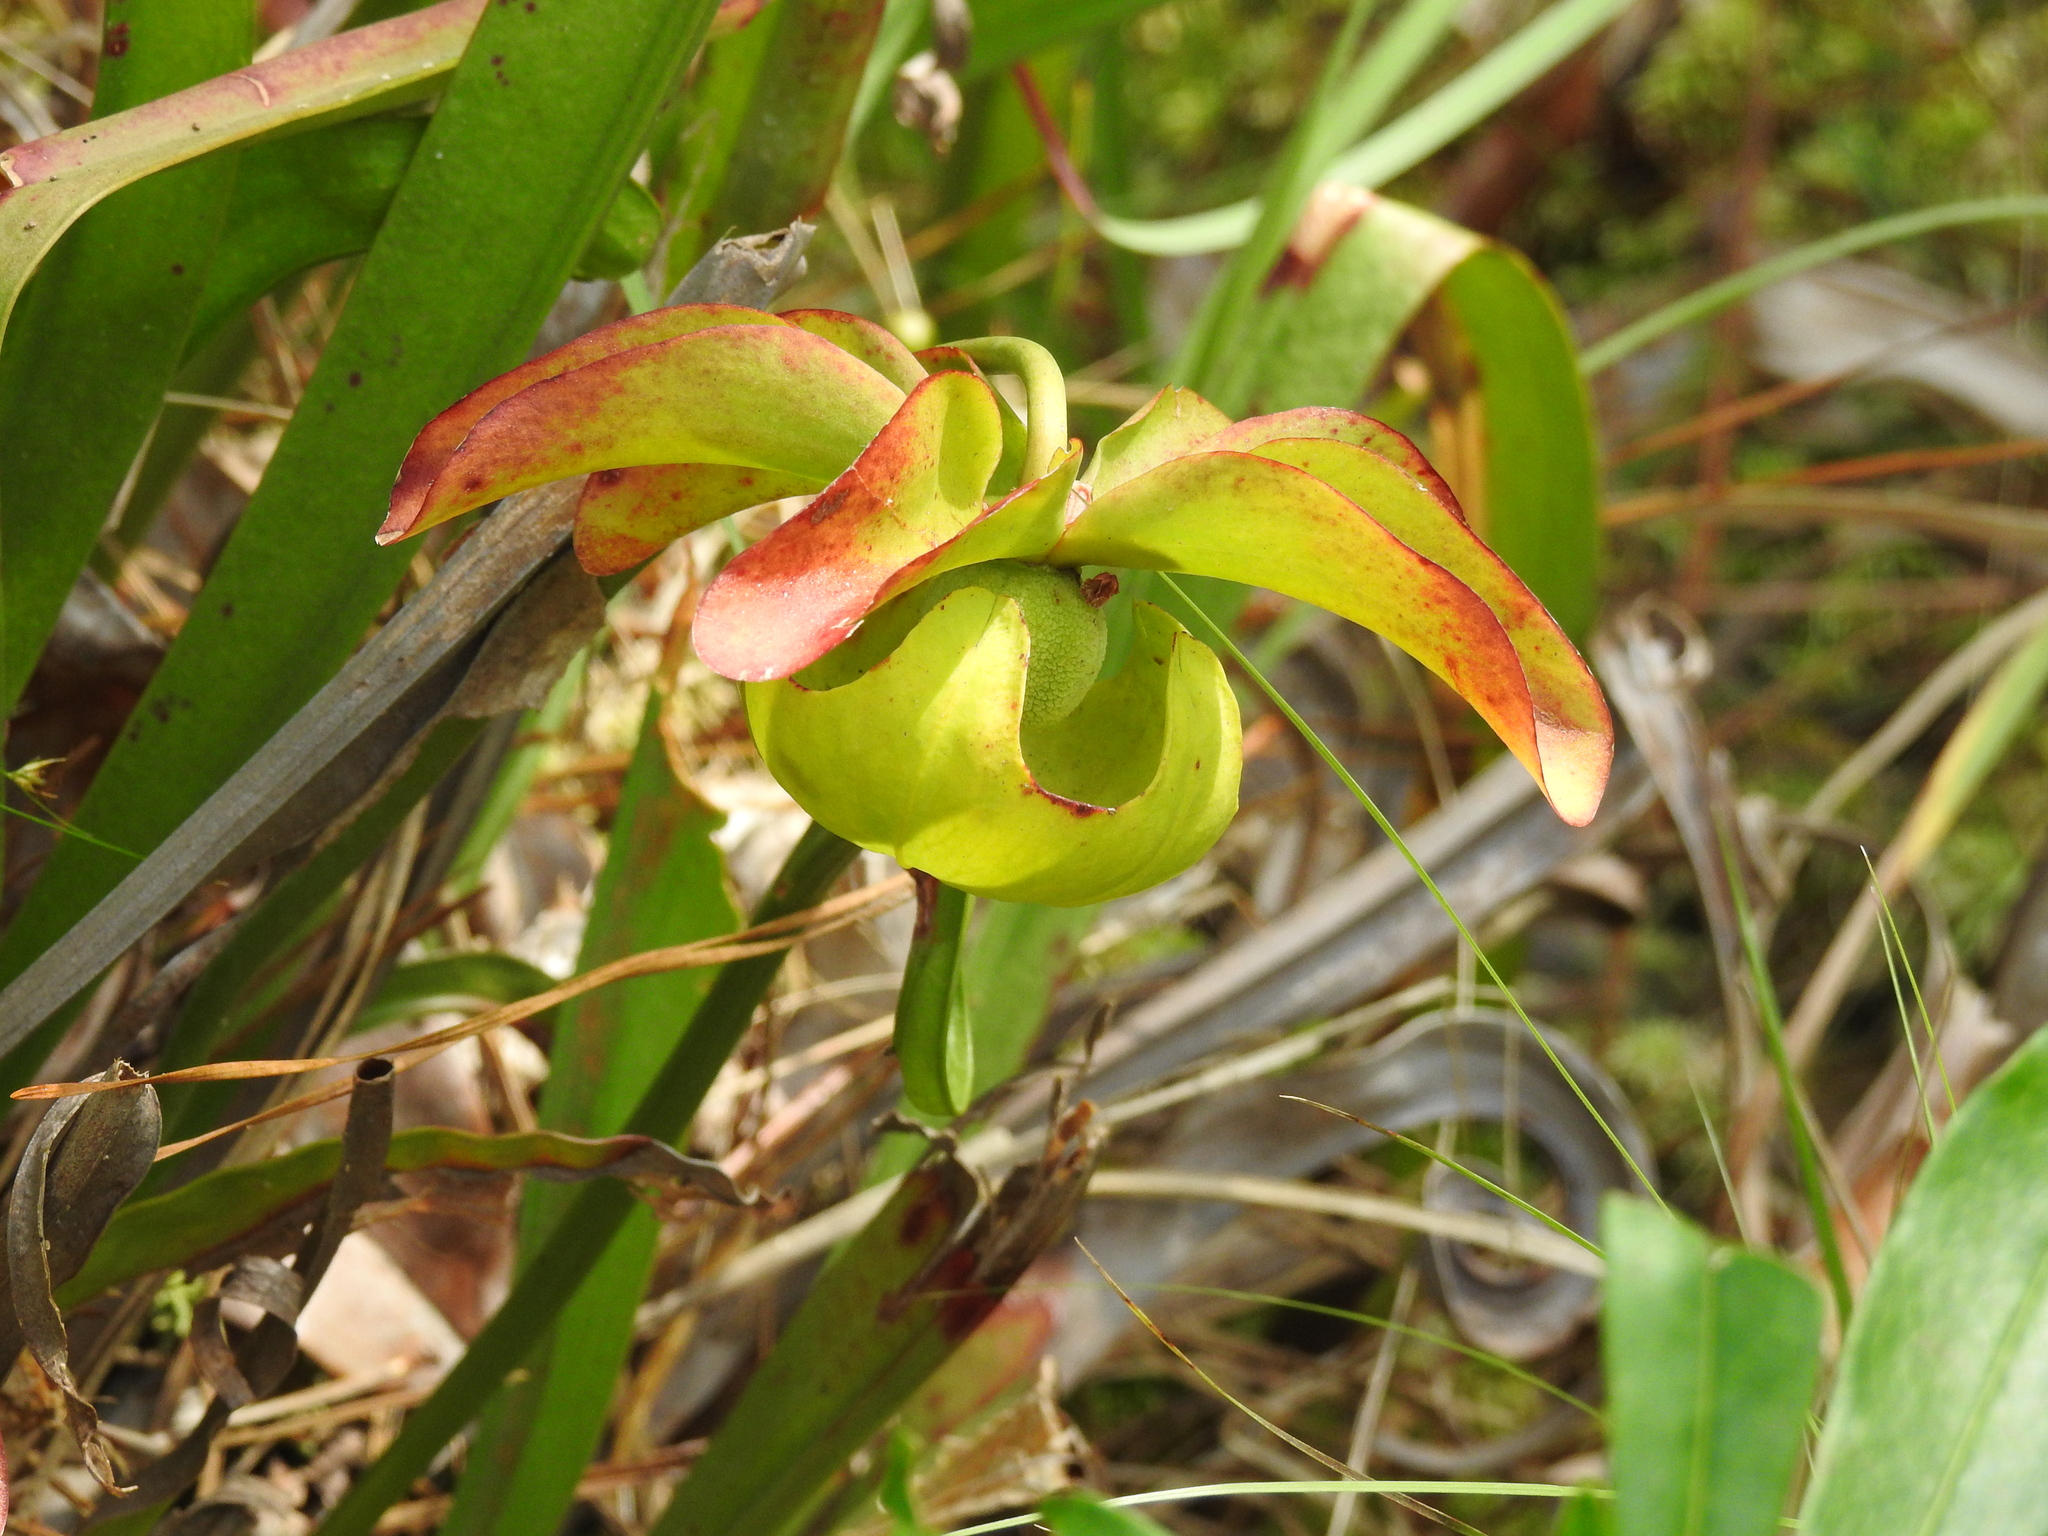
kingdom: Plantae
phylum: Tracheophyta
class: Magnoliopsida
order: Ericales
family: Sarraceniaceae
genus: Sarracenia
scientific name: Sarracenia alata
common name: Yellow trumpets
